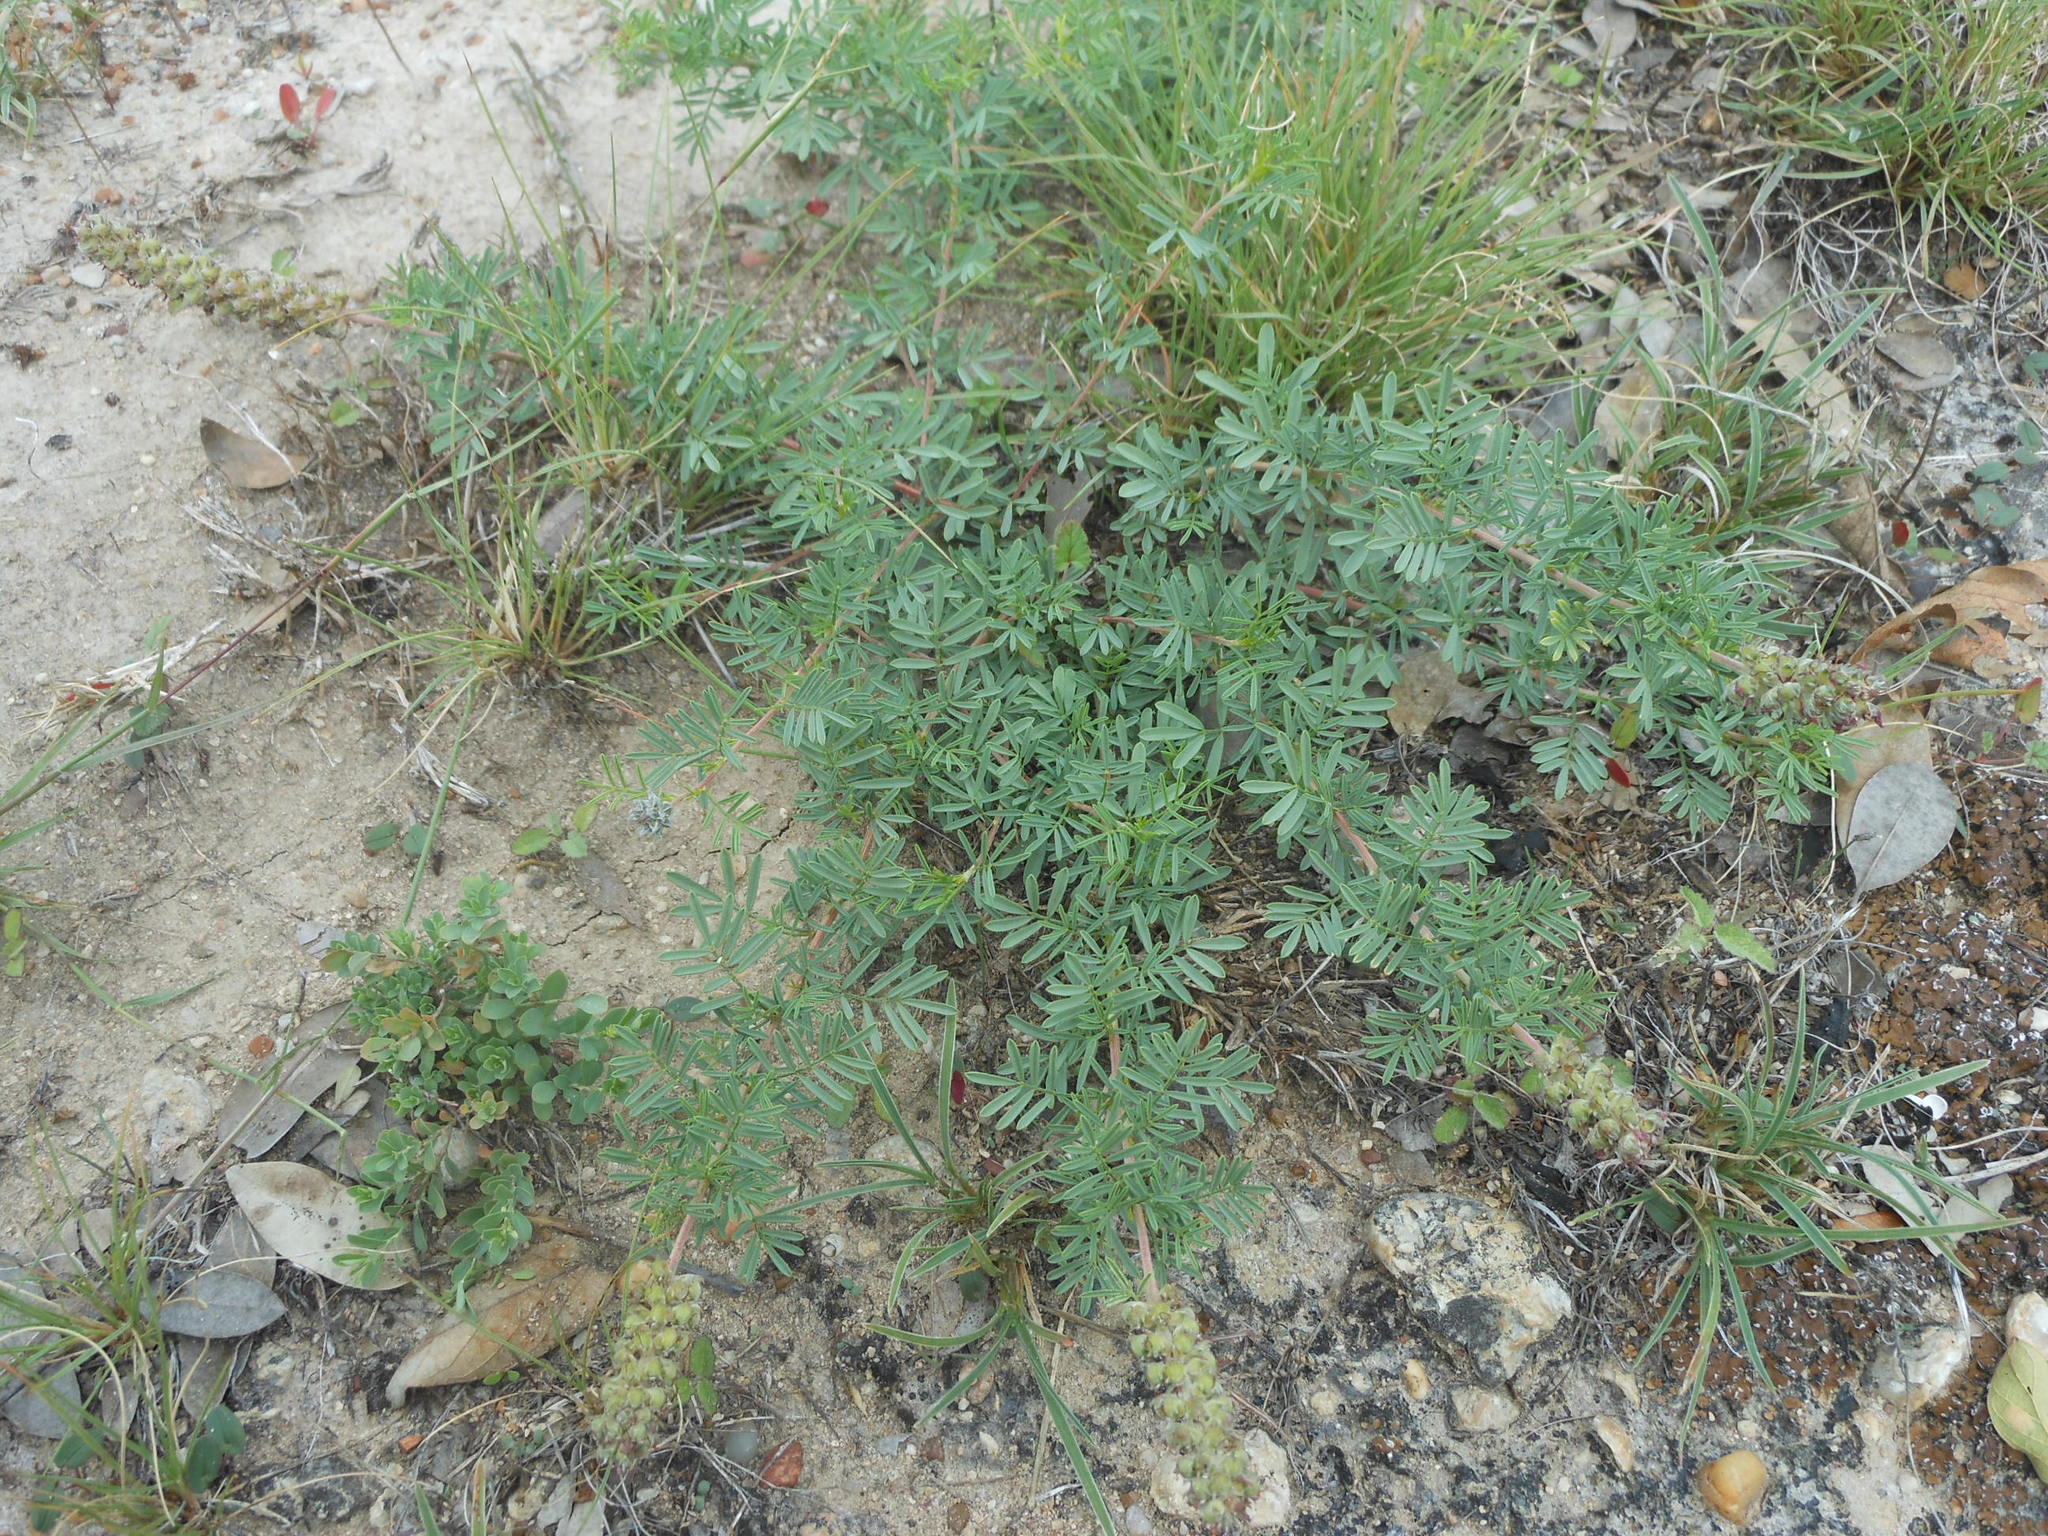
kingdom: Plantae
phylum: Tracheophyta
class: Magnoliopsida
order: Fabales
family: Fabaceae
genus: Dalea
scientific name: Dalea reverchonii
